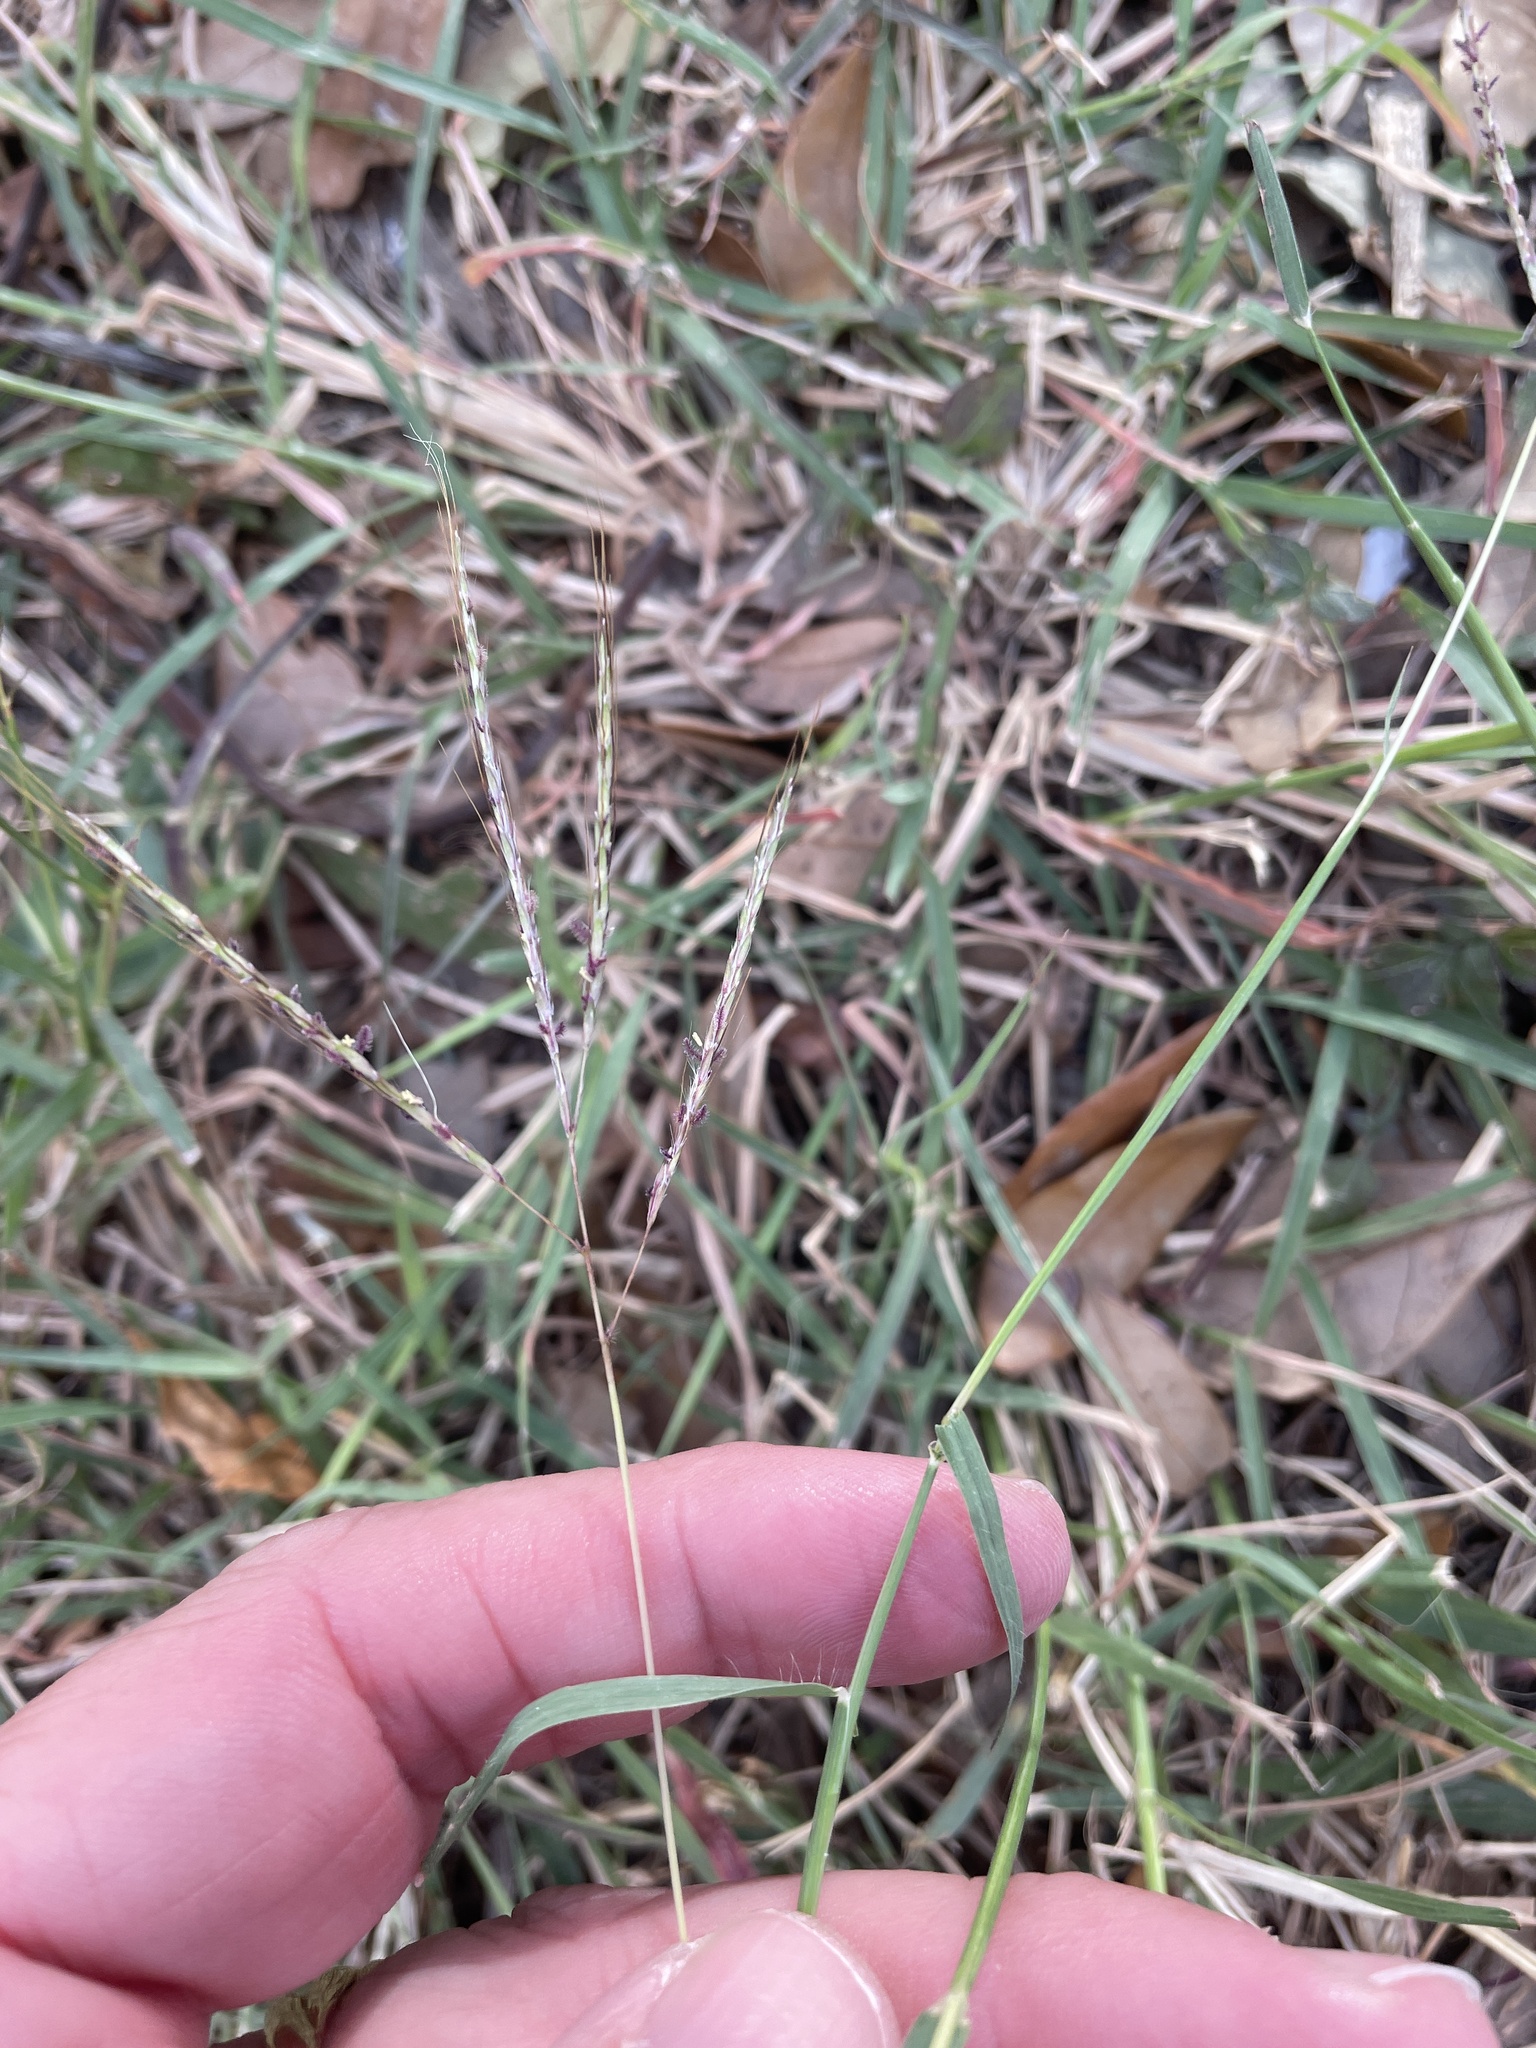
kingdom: Plantae
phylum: Tracheophyta
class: Liliopsida
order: Poales
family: Poaceae
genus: Bothriochloa
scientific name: Bothriochloa ischaemum
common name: Yellow bluestem
